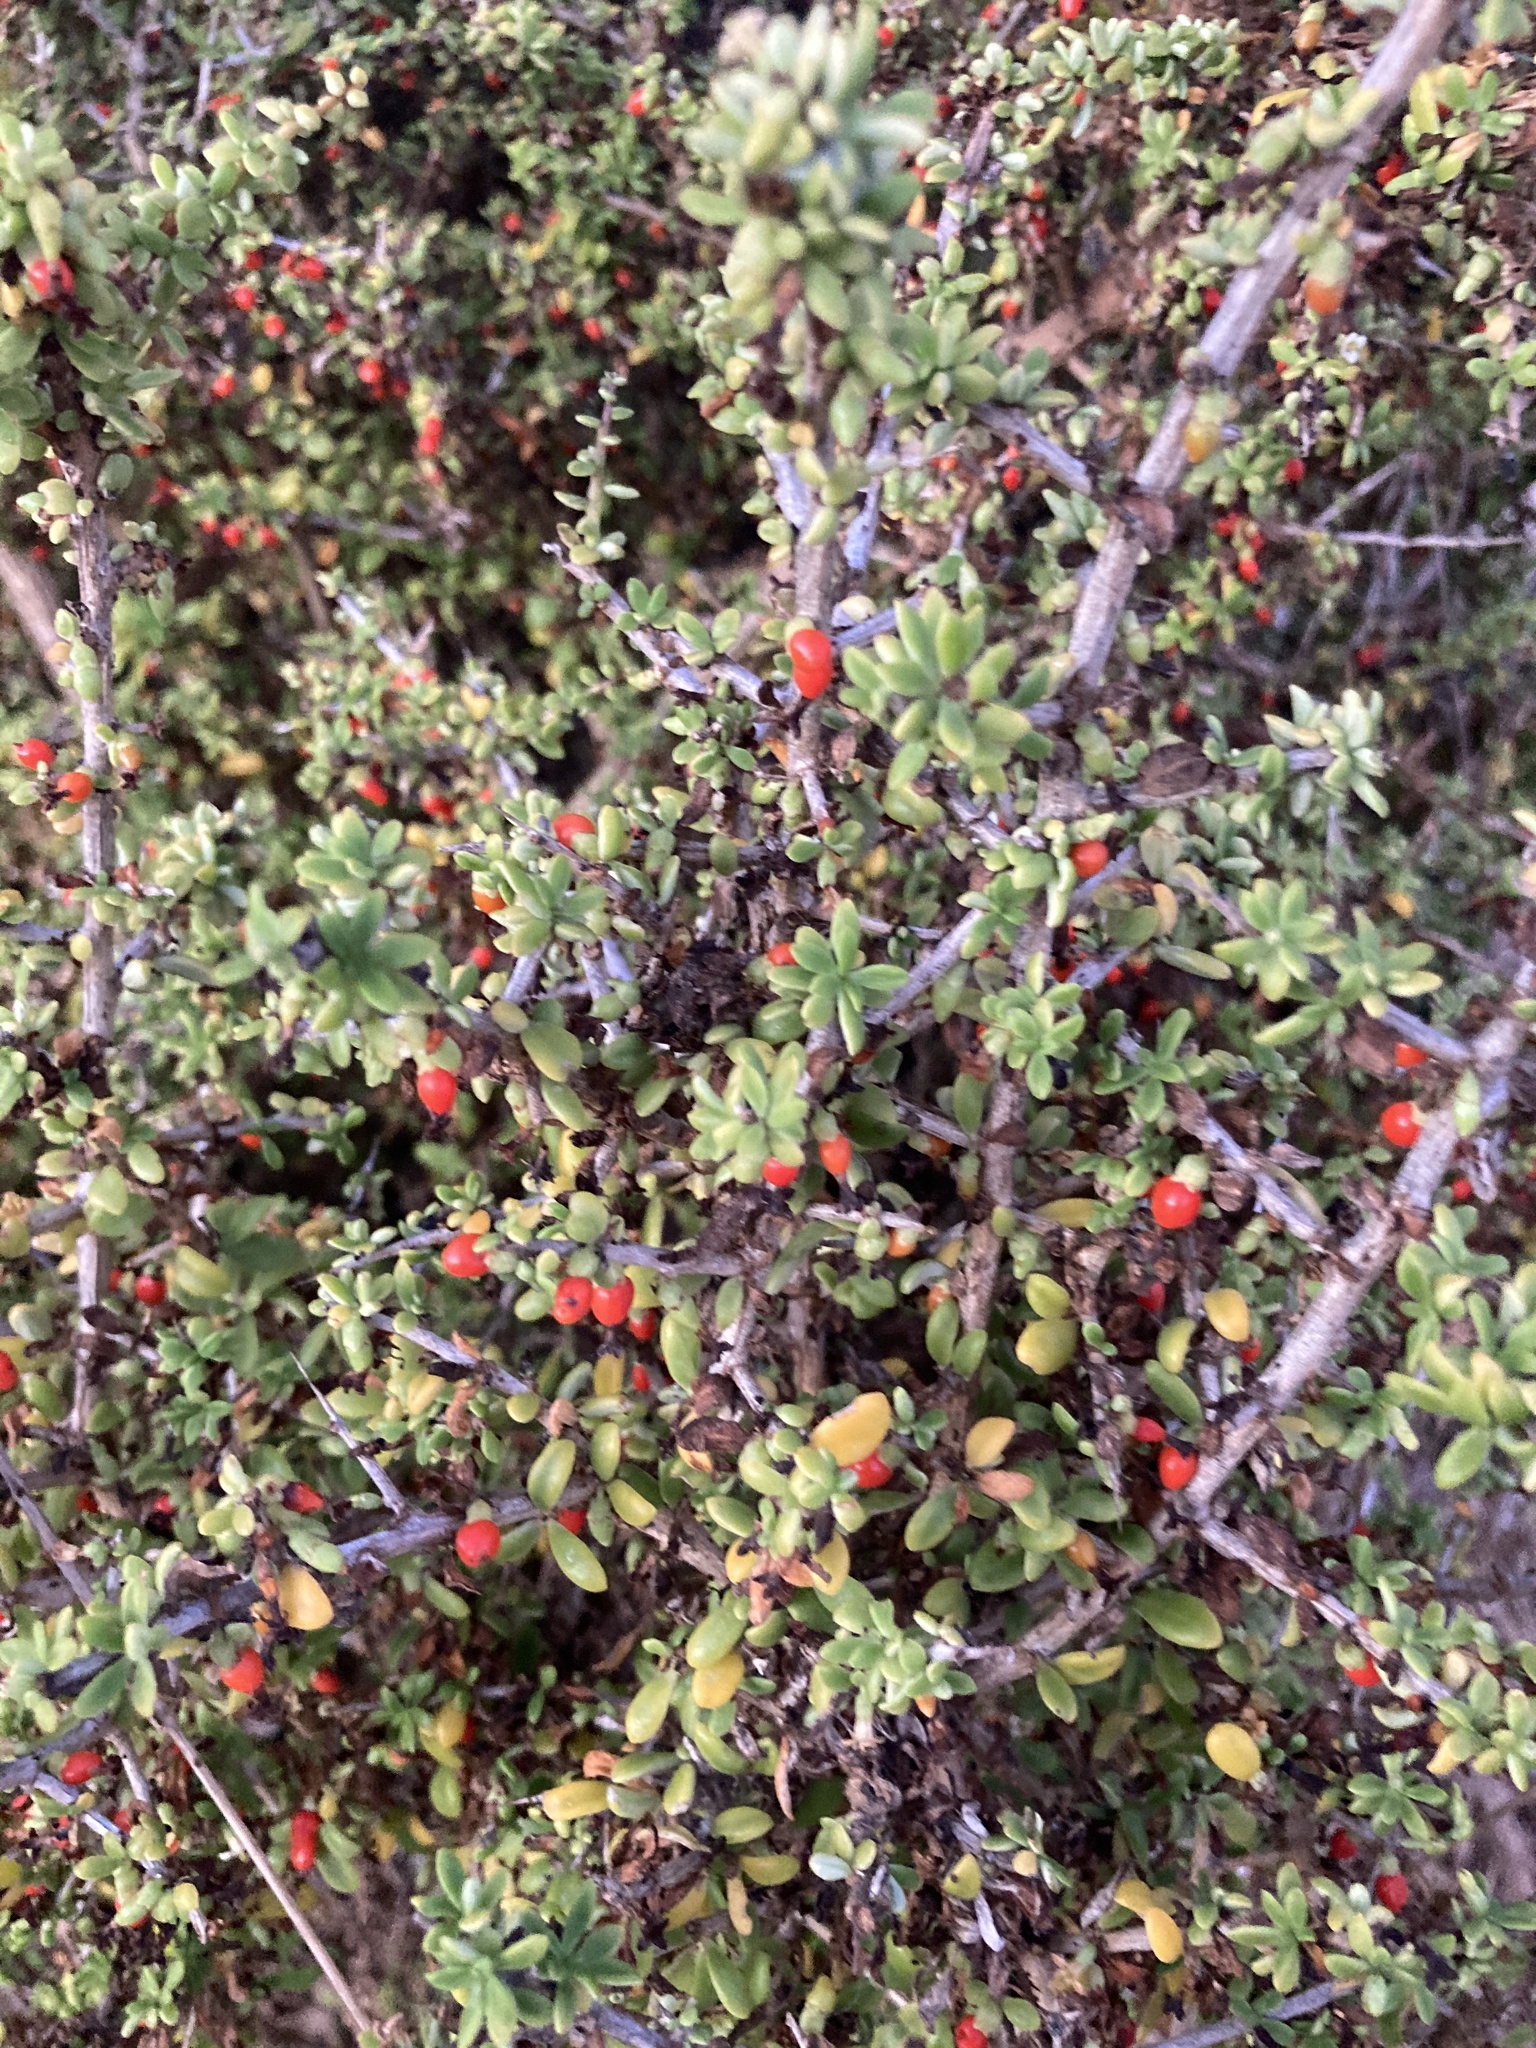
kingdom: Plantae
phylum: Tracheophyta
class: Magnoliopsida
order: Solanales
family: Solanaceae
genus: Lycium
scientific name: Lycium tetrandrum
